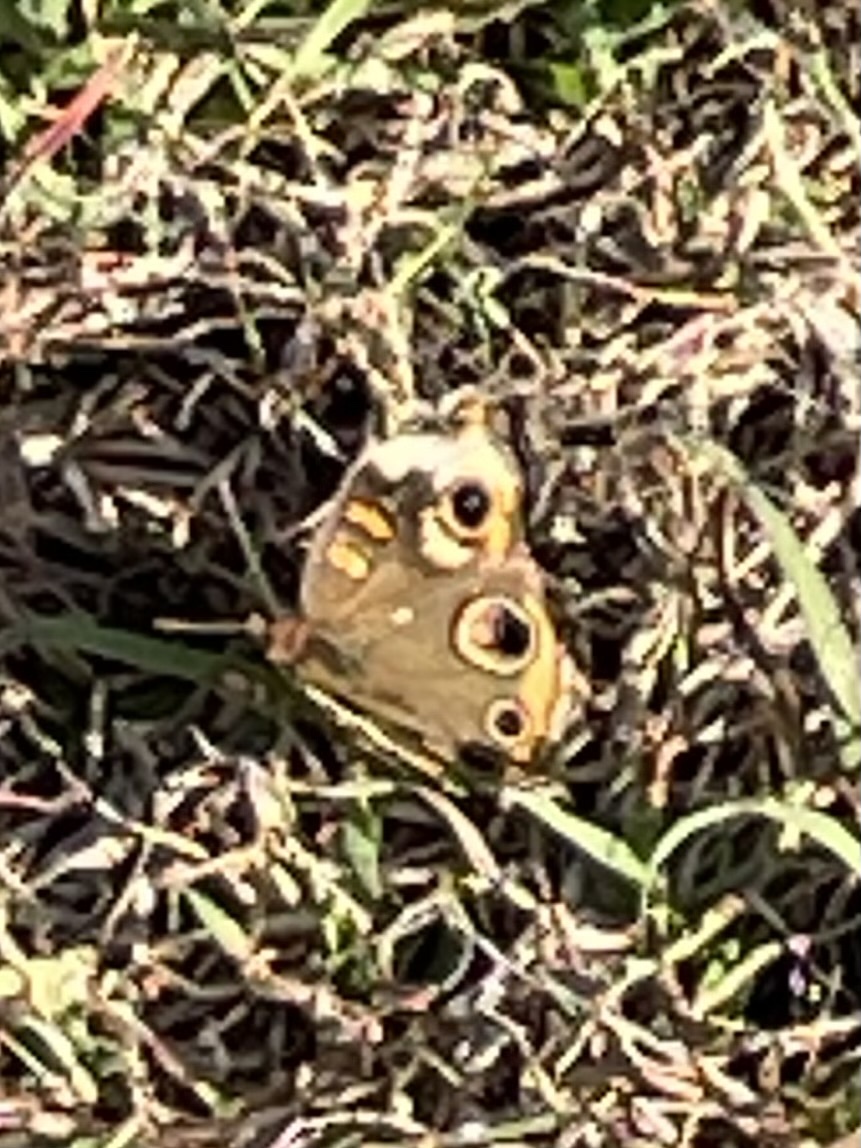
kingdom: Animalia
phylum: Arthropoda
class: Insecta
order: Lepidoptera
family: Nymphalidae
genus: Junonia
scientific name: Junonia coenia
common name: Common buckeye
